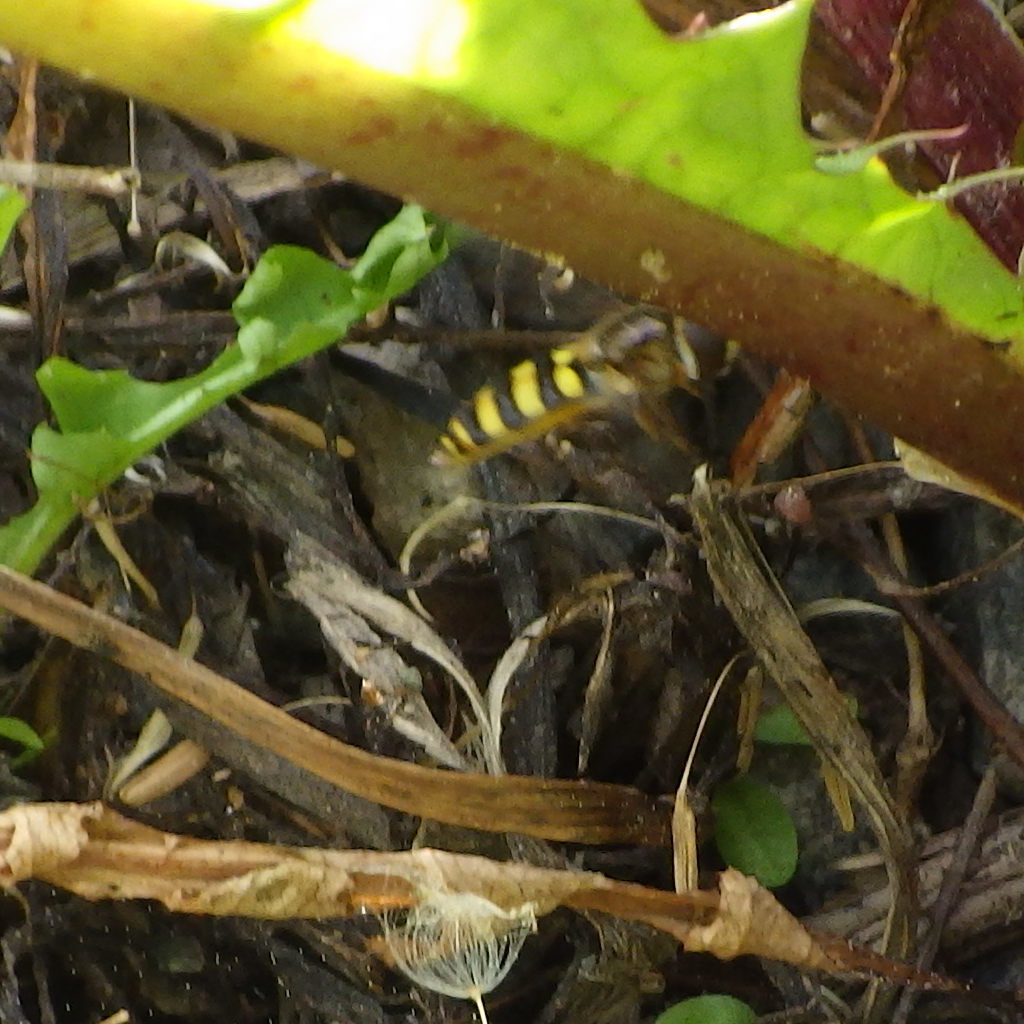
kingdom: Animalia
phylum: Arthropoda
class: Insecta
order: Diptera
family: Syrphidae
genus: Eupeodes
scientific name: Eupeodes
